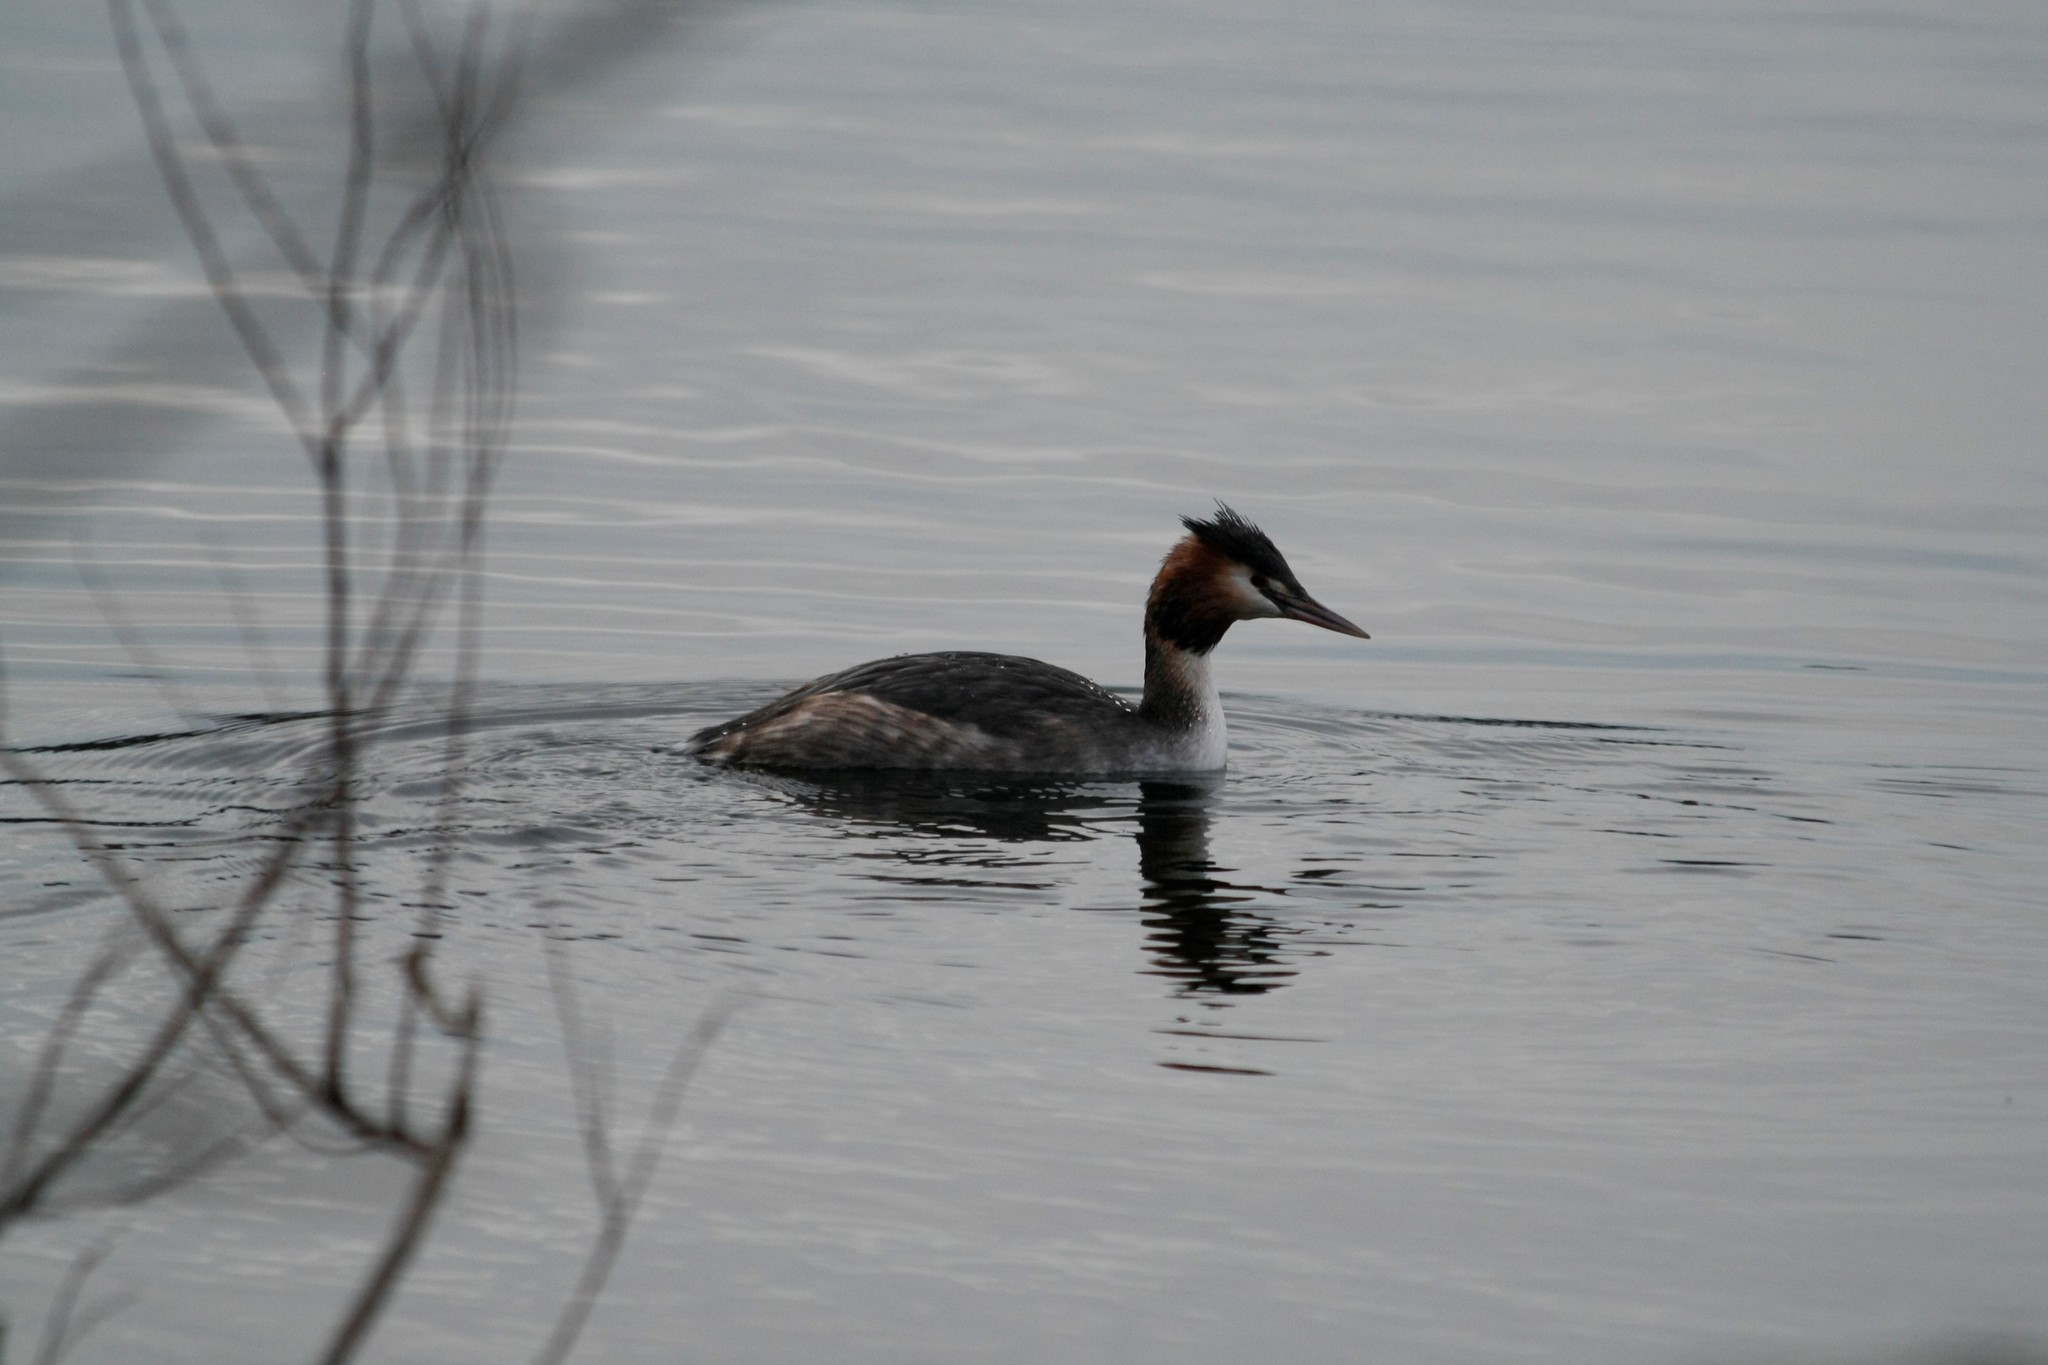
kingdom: Animalia
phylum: Chordata
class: Aves
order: Podicipediformes
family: Podicipedidae
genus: Podiceps
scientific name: Podiceps cristatus
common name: Great crested grebe
